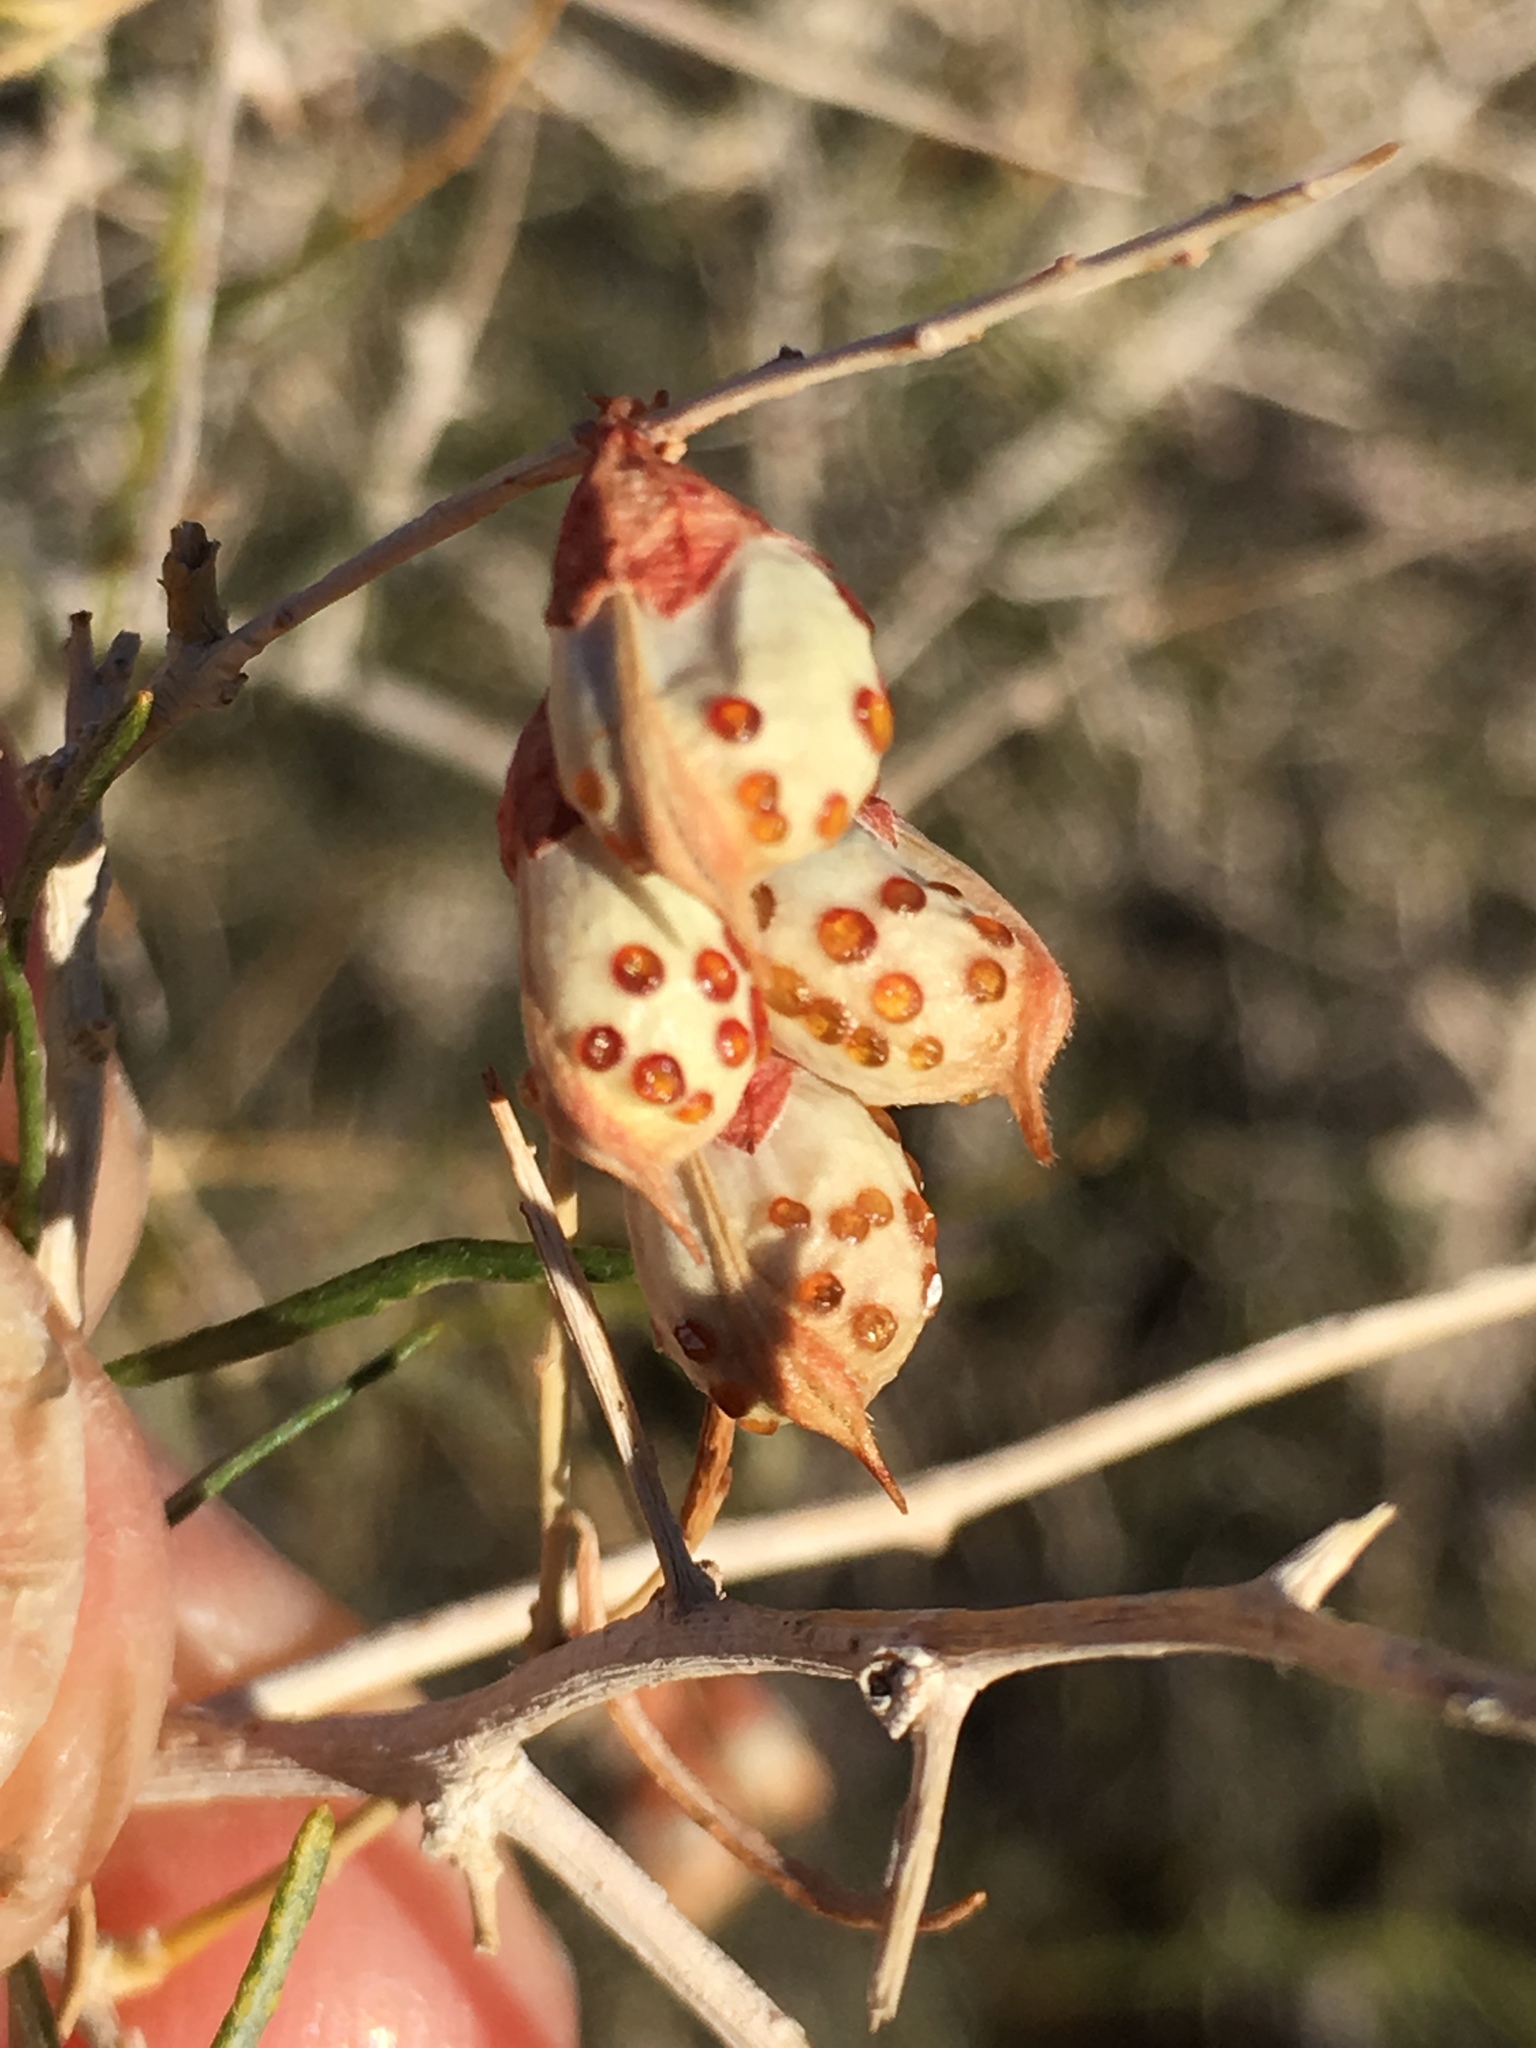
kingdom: Plantae
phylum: Tracheophyta
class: Magnoliopsida
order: Fabales
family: Fabaceae
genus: Psorothamnus
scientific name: Psorothamnus schottii
